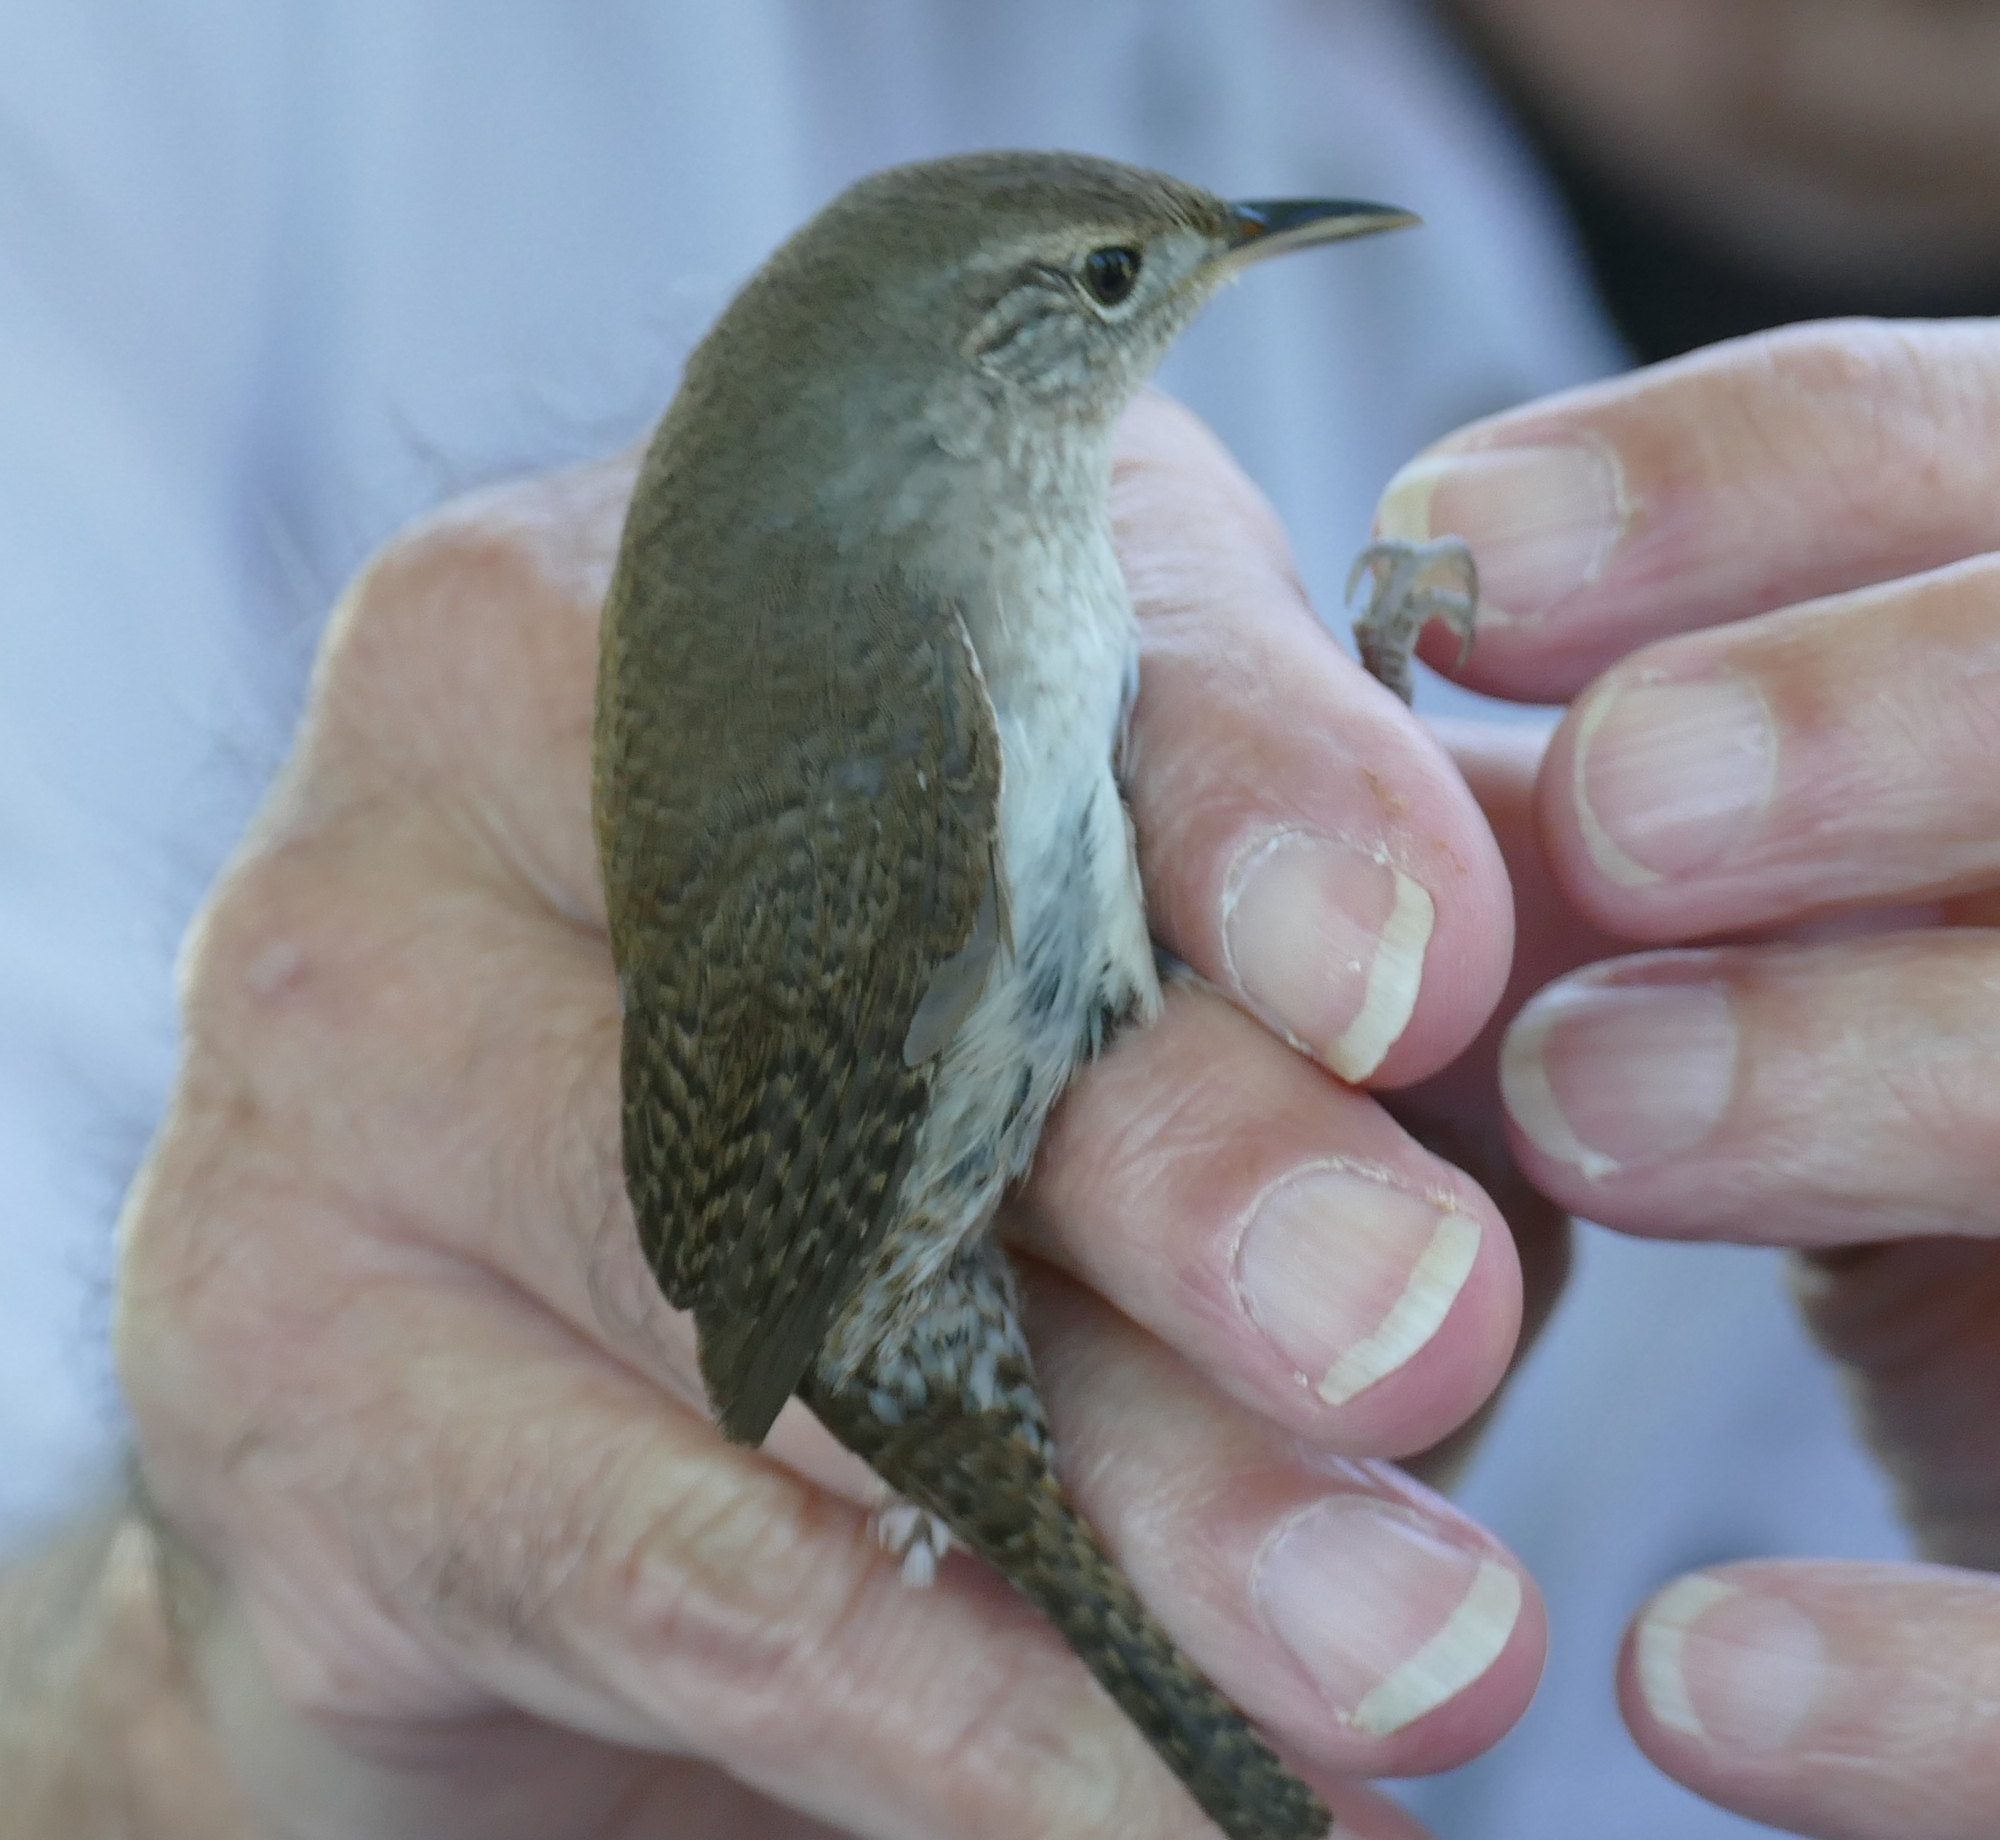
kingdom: Animalia
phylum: Chordata
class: Aves
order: Passeriformes
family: Troglodytidae
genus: Troglodytes
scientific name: Troglodytes aedon
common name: House wren
